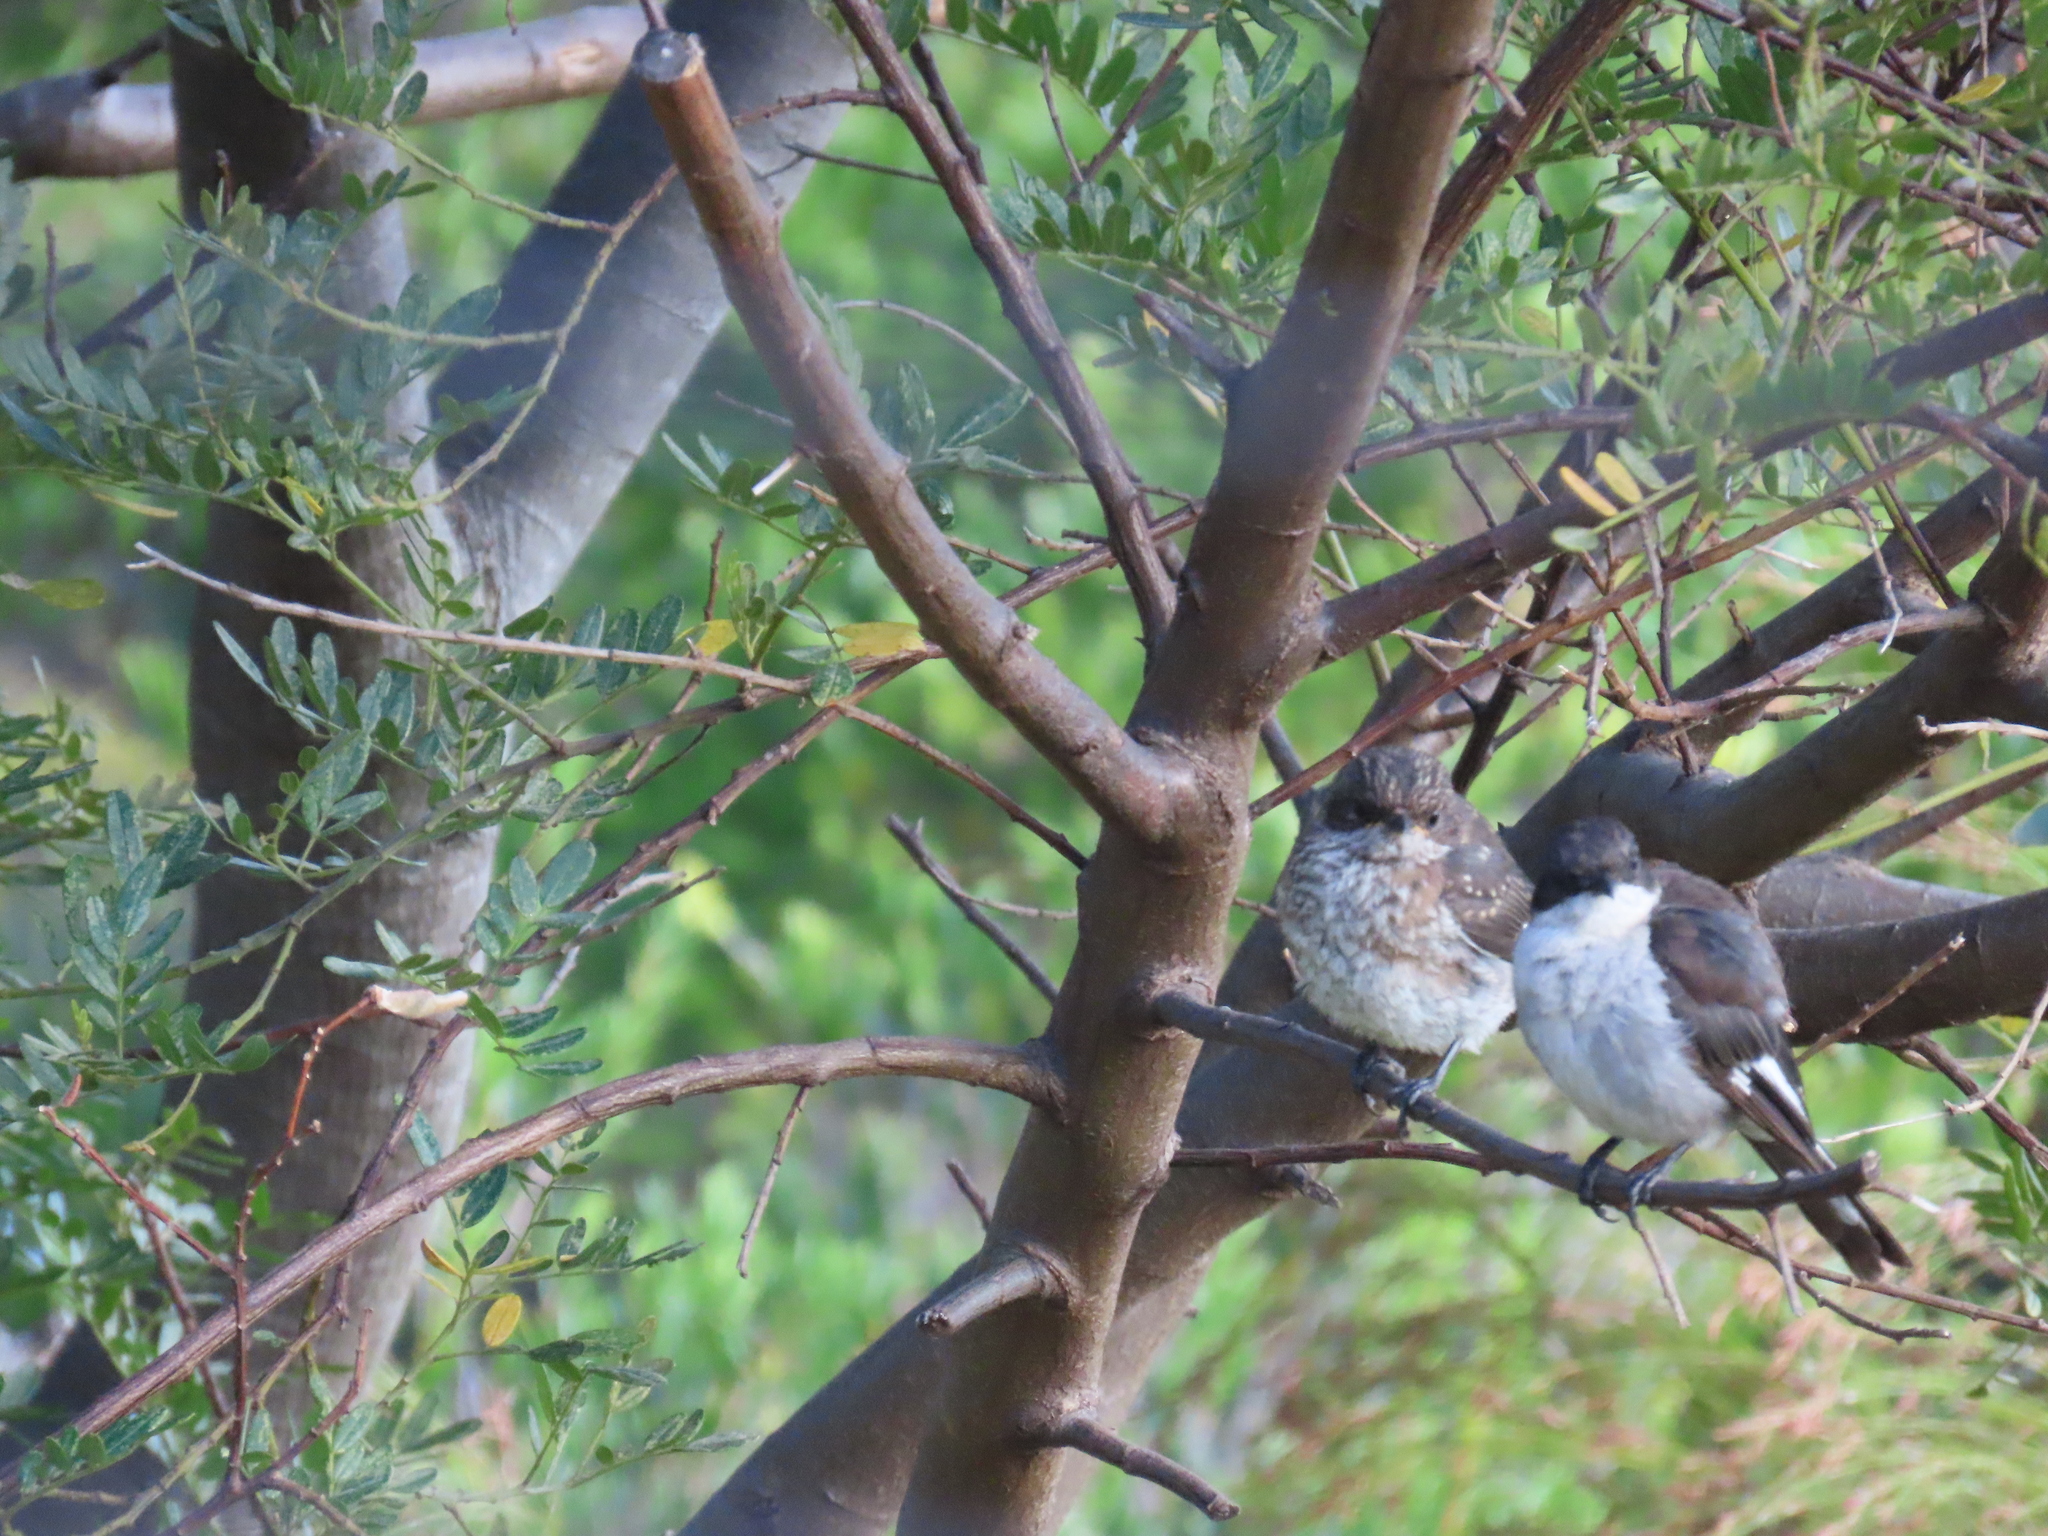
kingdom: Animalia
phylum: Chordata
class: Aves
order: Passeriformes
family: Muscicapidae
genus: Sigelus
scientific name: Sigelus silens
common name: Fiscal flycatcher
